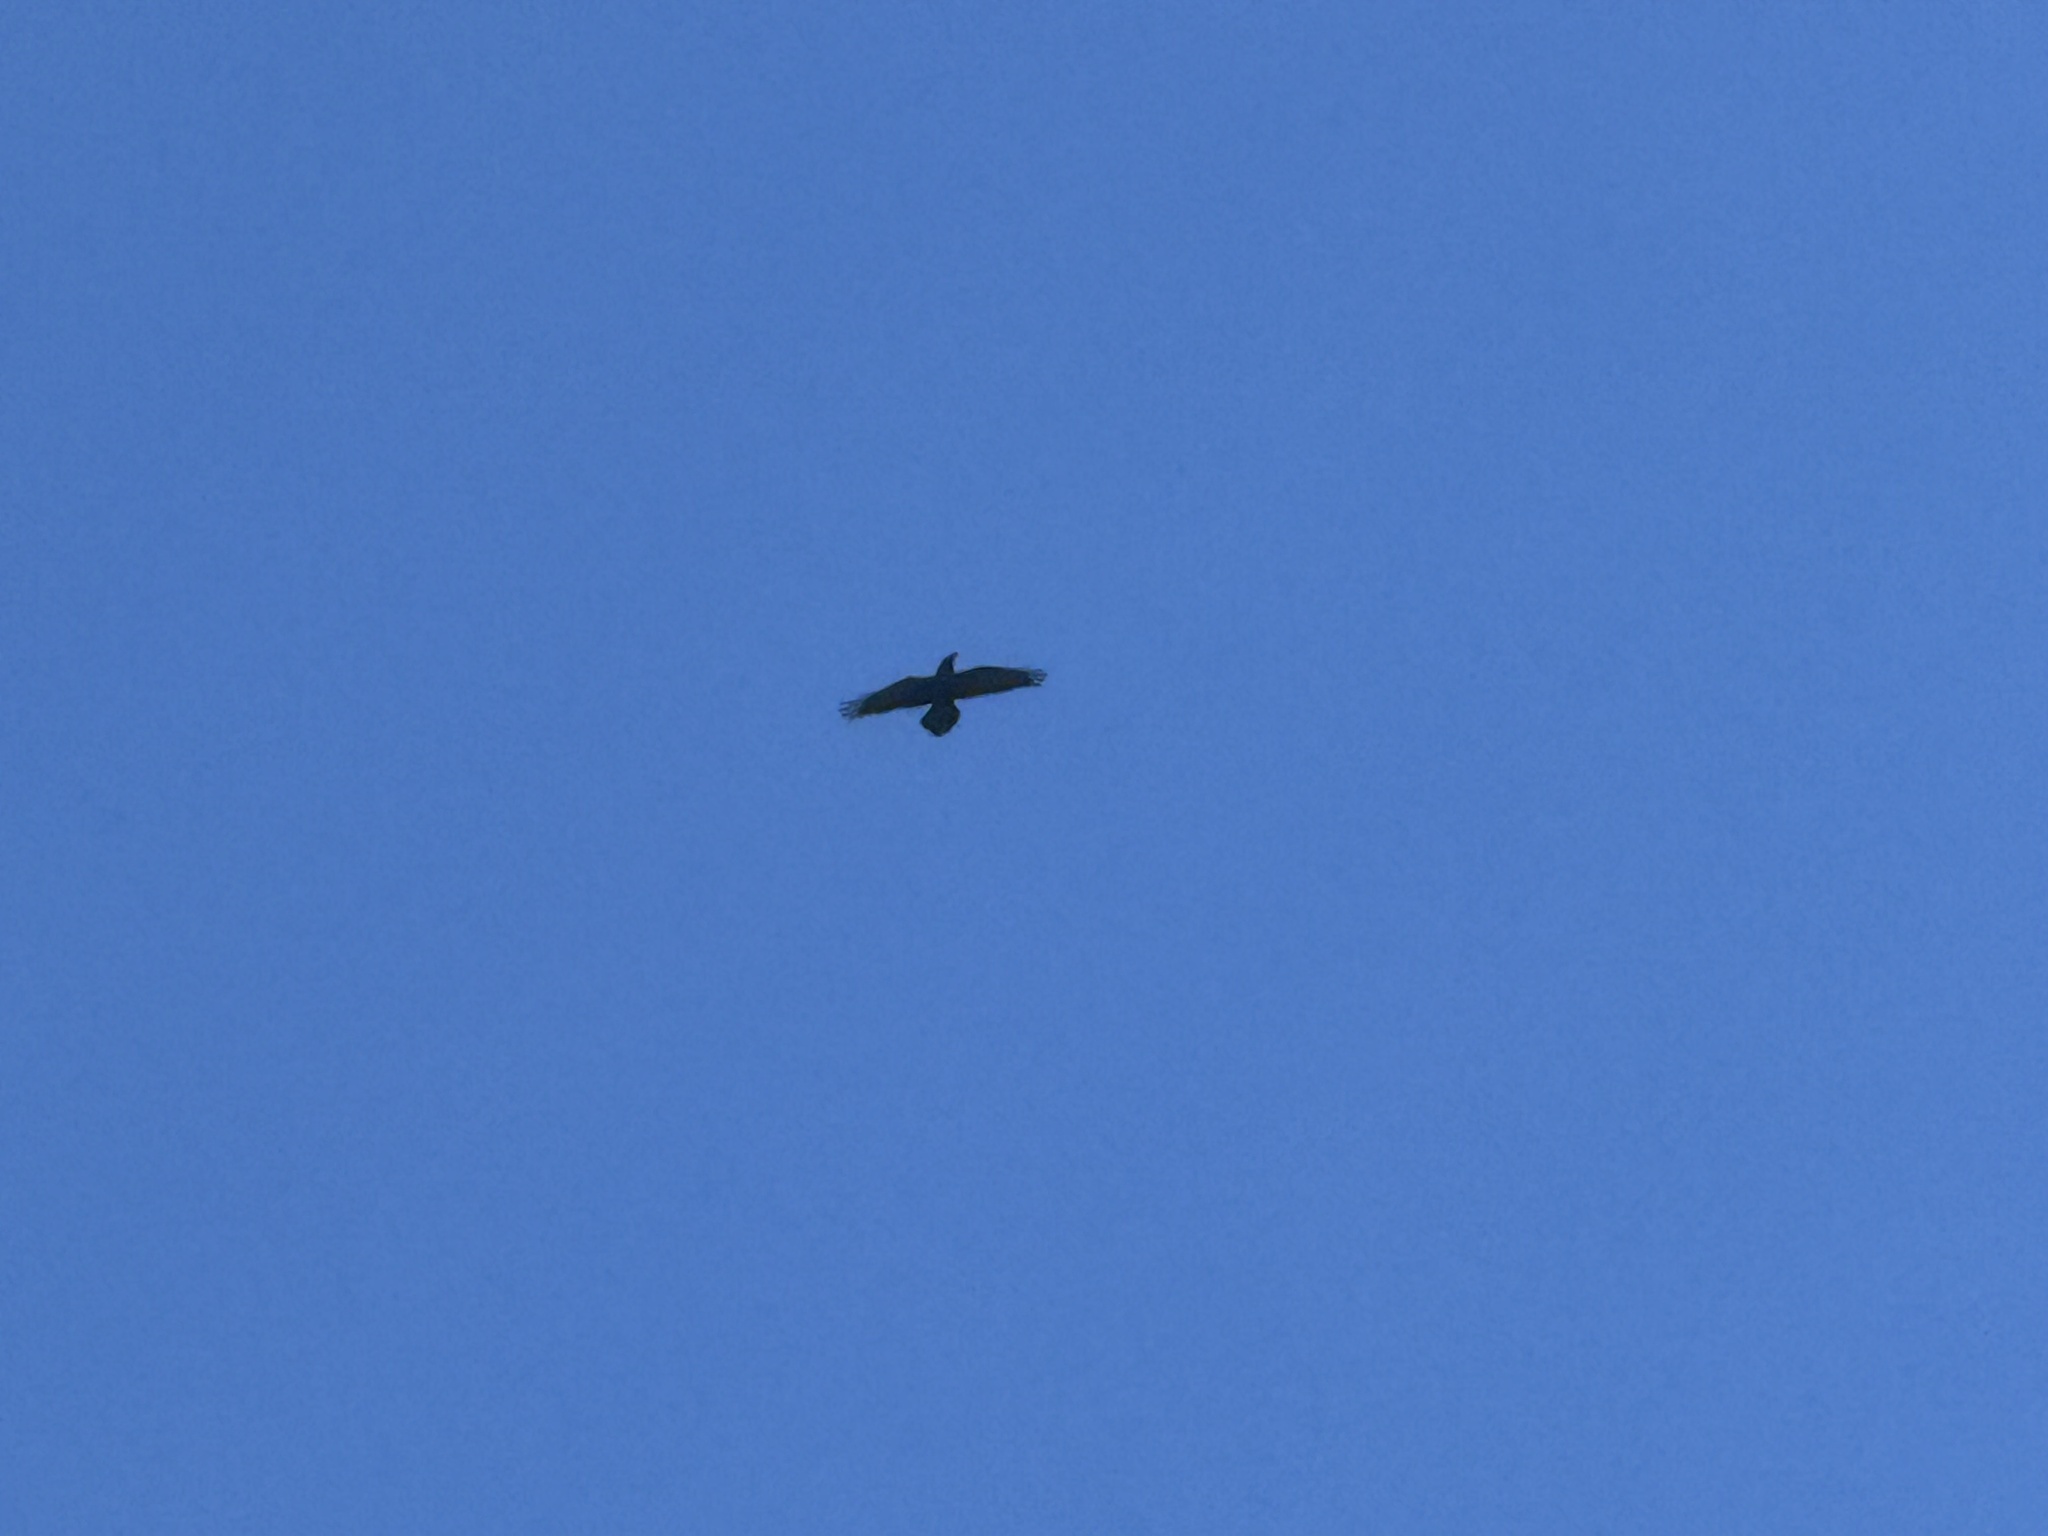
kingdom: Animalia
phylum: Chordata
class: Aves
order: Passeriformes
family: Corvidae
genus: Corvus
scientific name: Corvus corax
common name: Common raven
